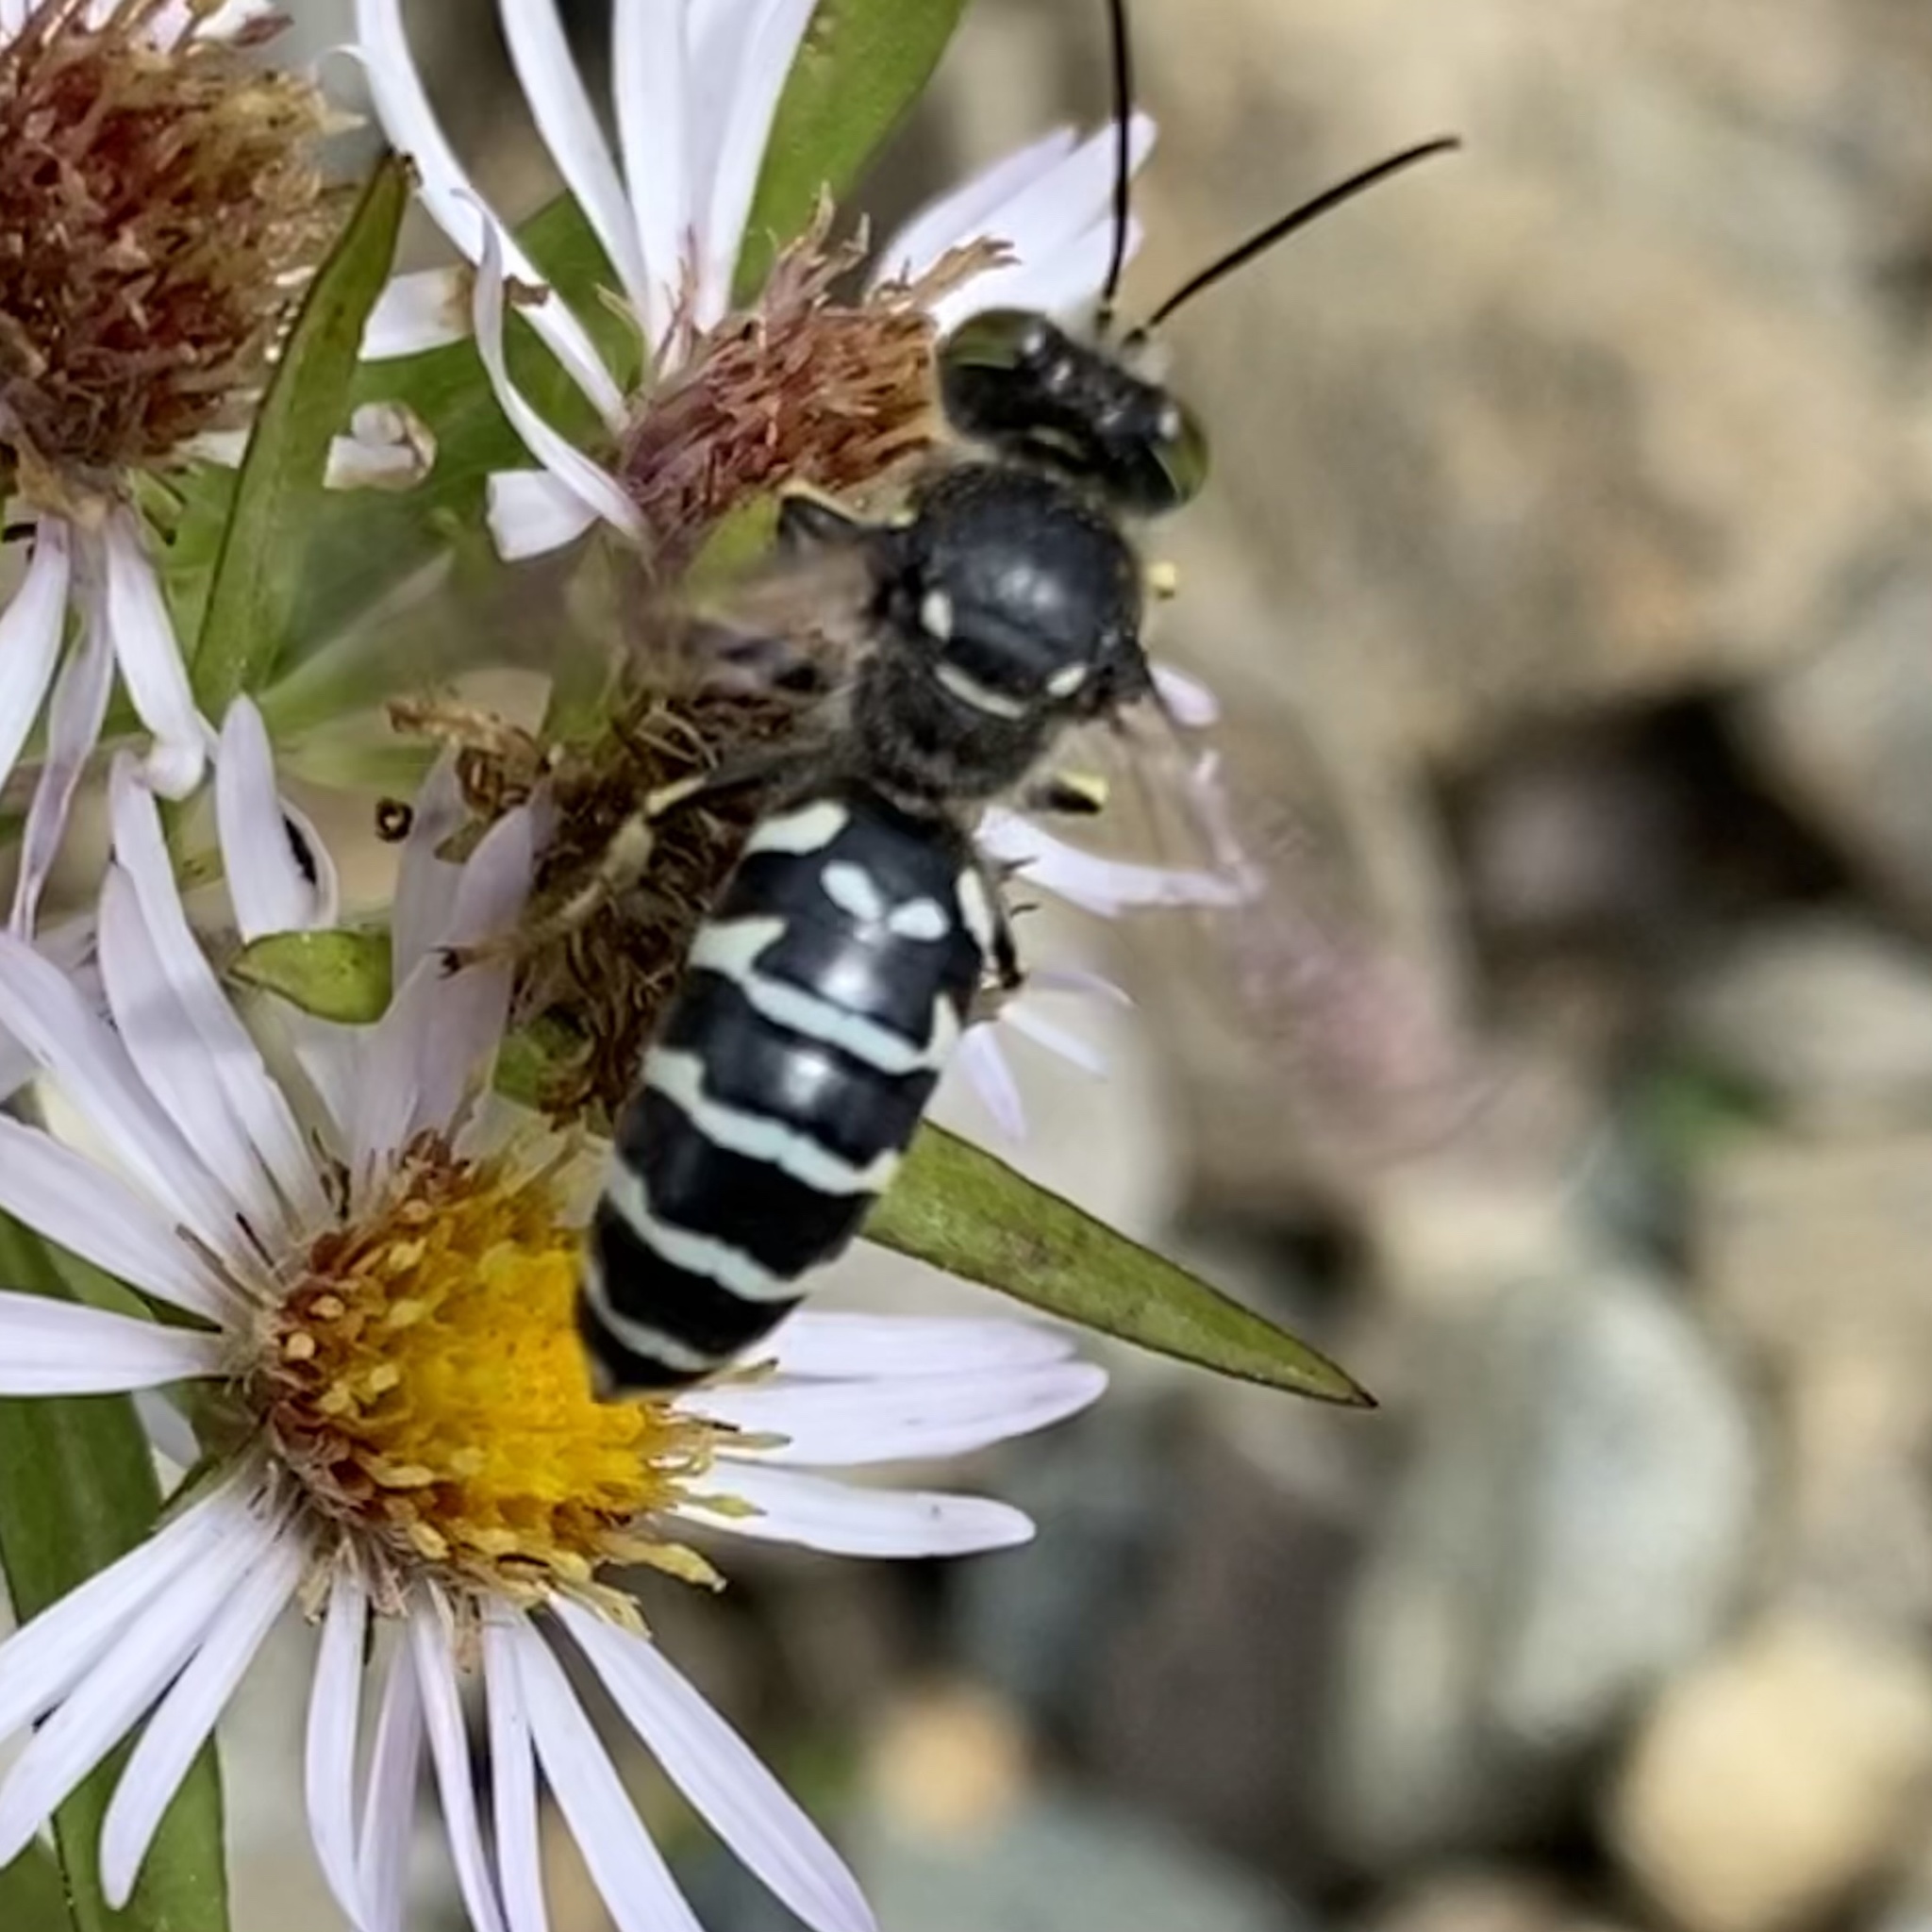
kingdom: Animalia
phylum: Arthropoda
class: Insecta
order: Hymenoptera
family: Crabronidae
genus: Steniolia
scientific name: Steniolia obliqua
